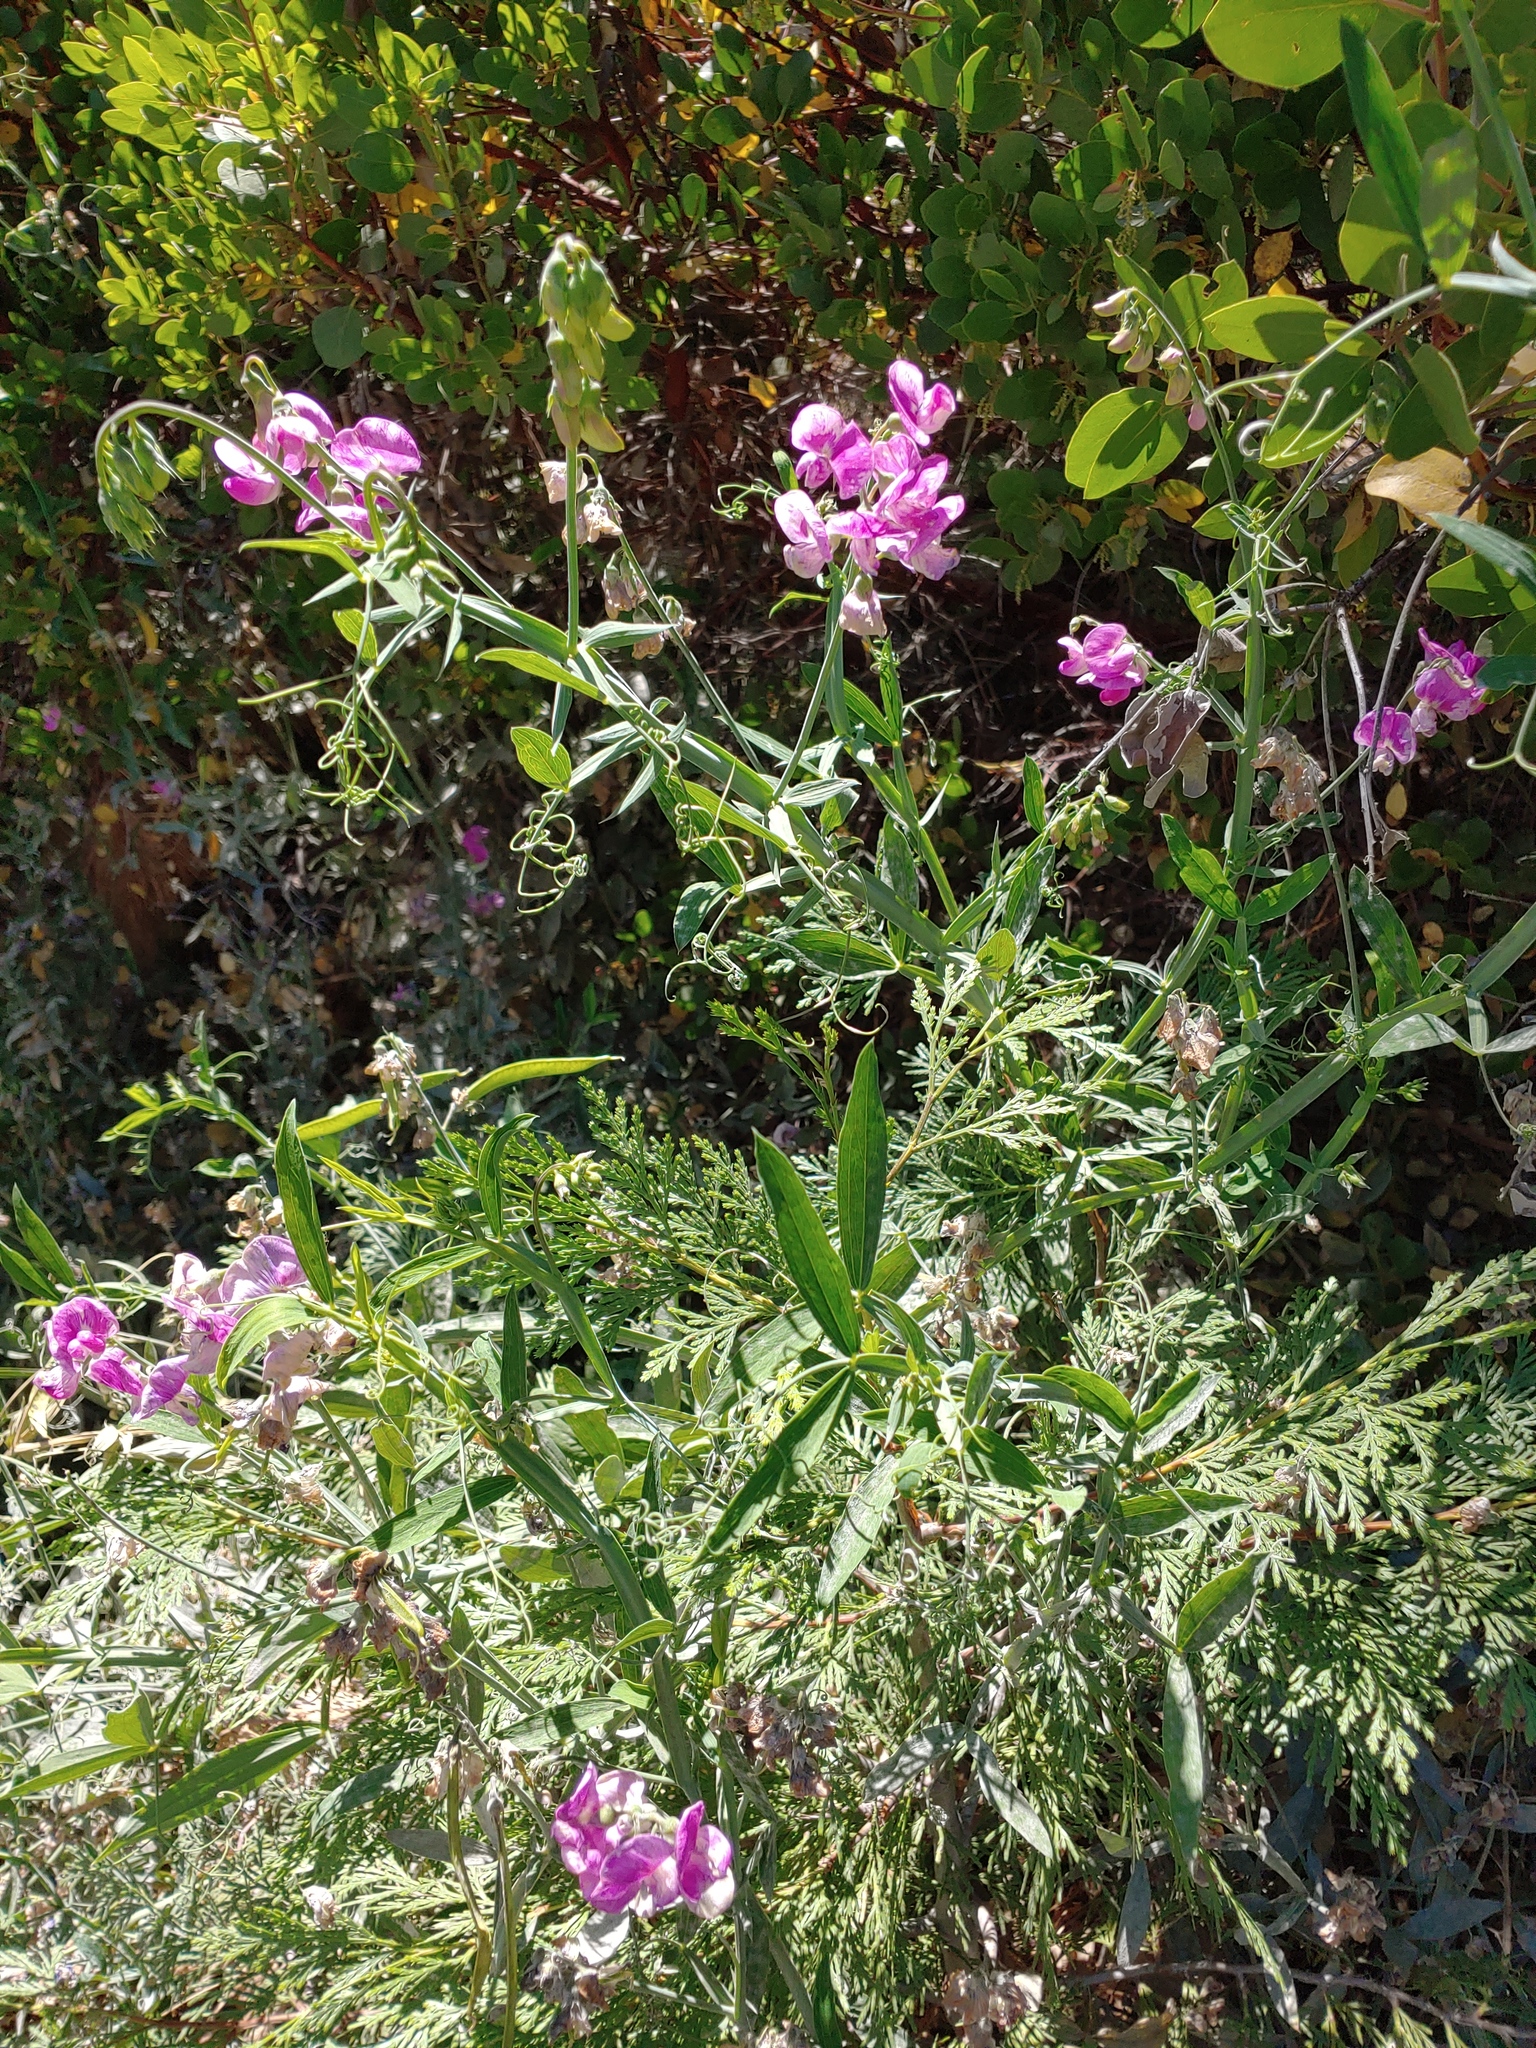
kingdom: Plantae
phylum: Tracheophyta
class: Magnoliopsida
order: Fabales
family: Fabaceae
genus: Lathyrus
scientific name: Lathyrus latifolius
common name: Perennial pea
